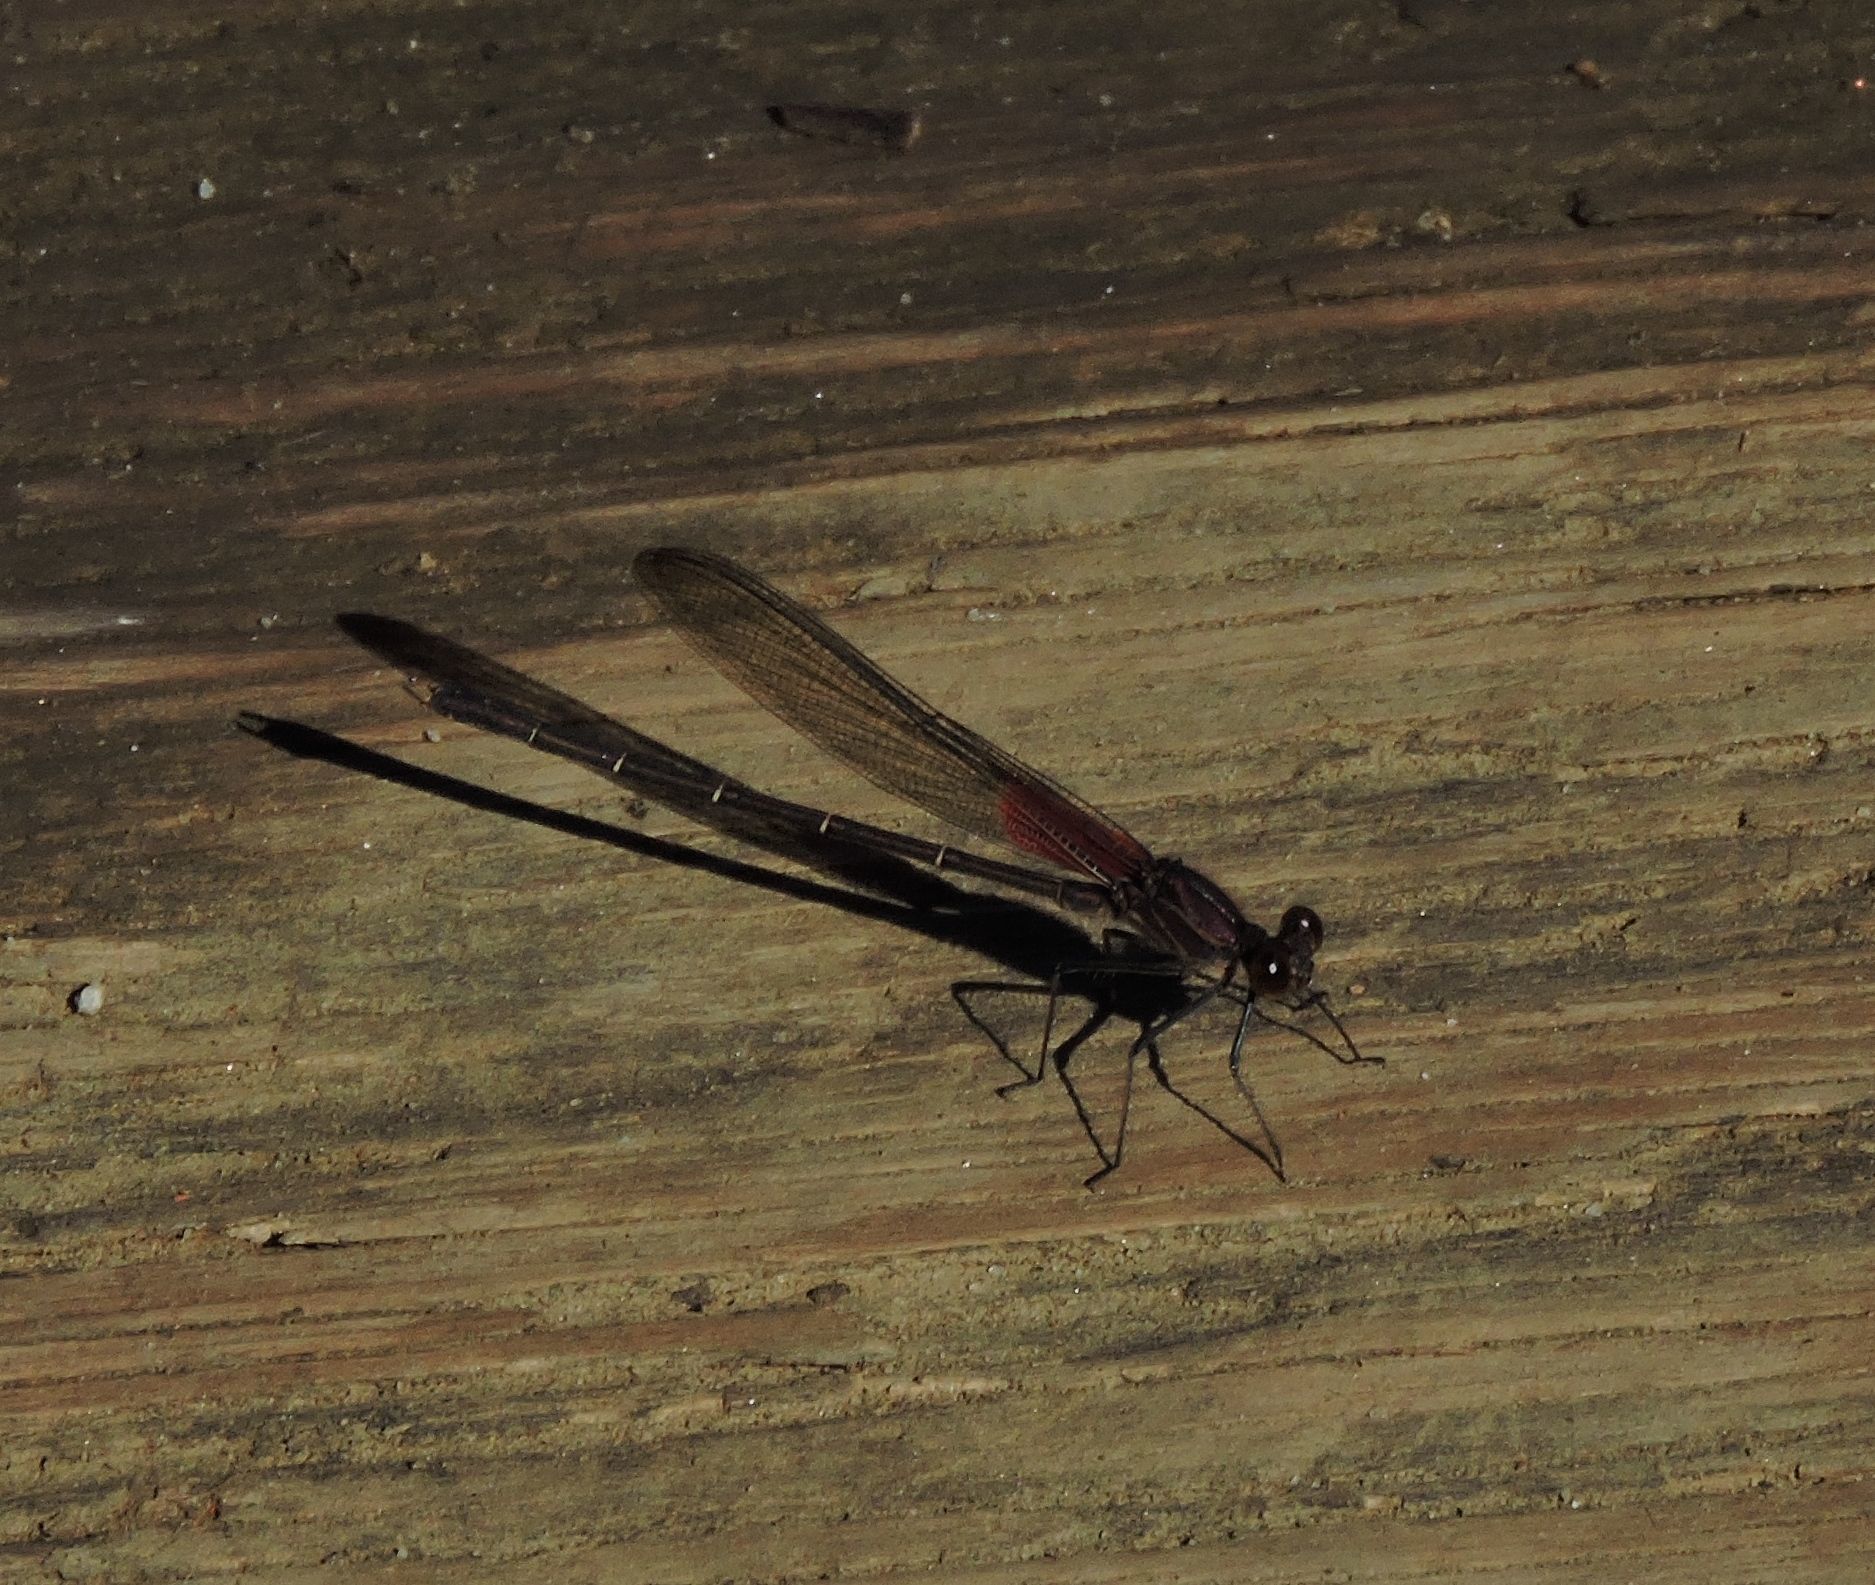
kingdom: Animalia
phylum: Arthropoda
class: Insecta
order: Odonata
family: Calopterygidae
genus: Hetaerina
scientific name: Hetaerina americana
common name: American rubyspot
